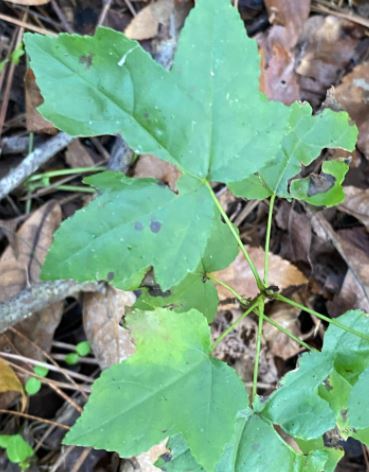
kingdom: Plantae
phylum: Tracheophyta
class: Magnoliopsida
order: Saxifragales
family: Altingiaceae
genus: Liquidambar
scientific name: Liquidambar styraciflua
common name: Sweet gum
